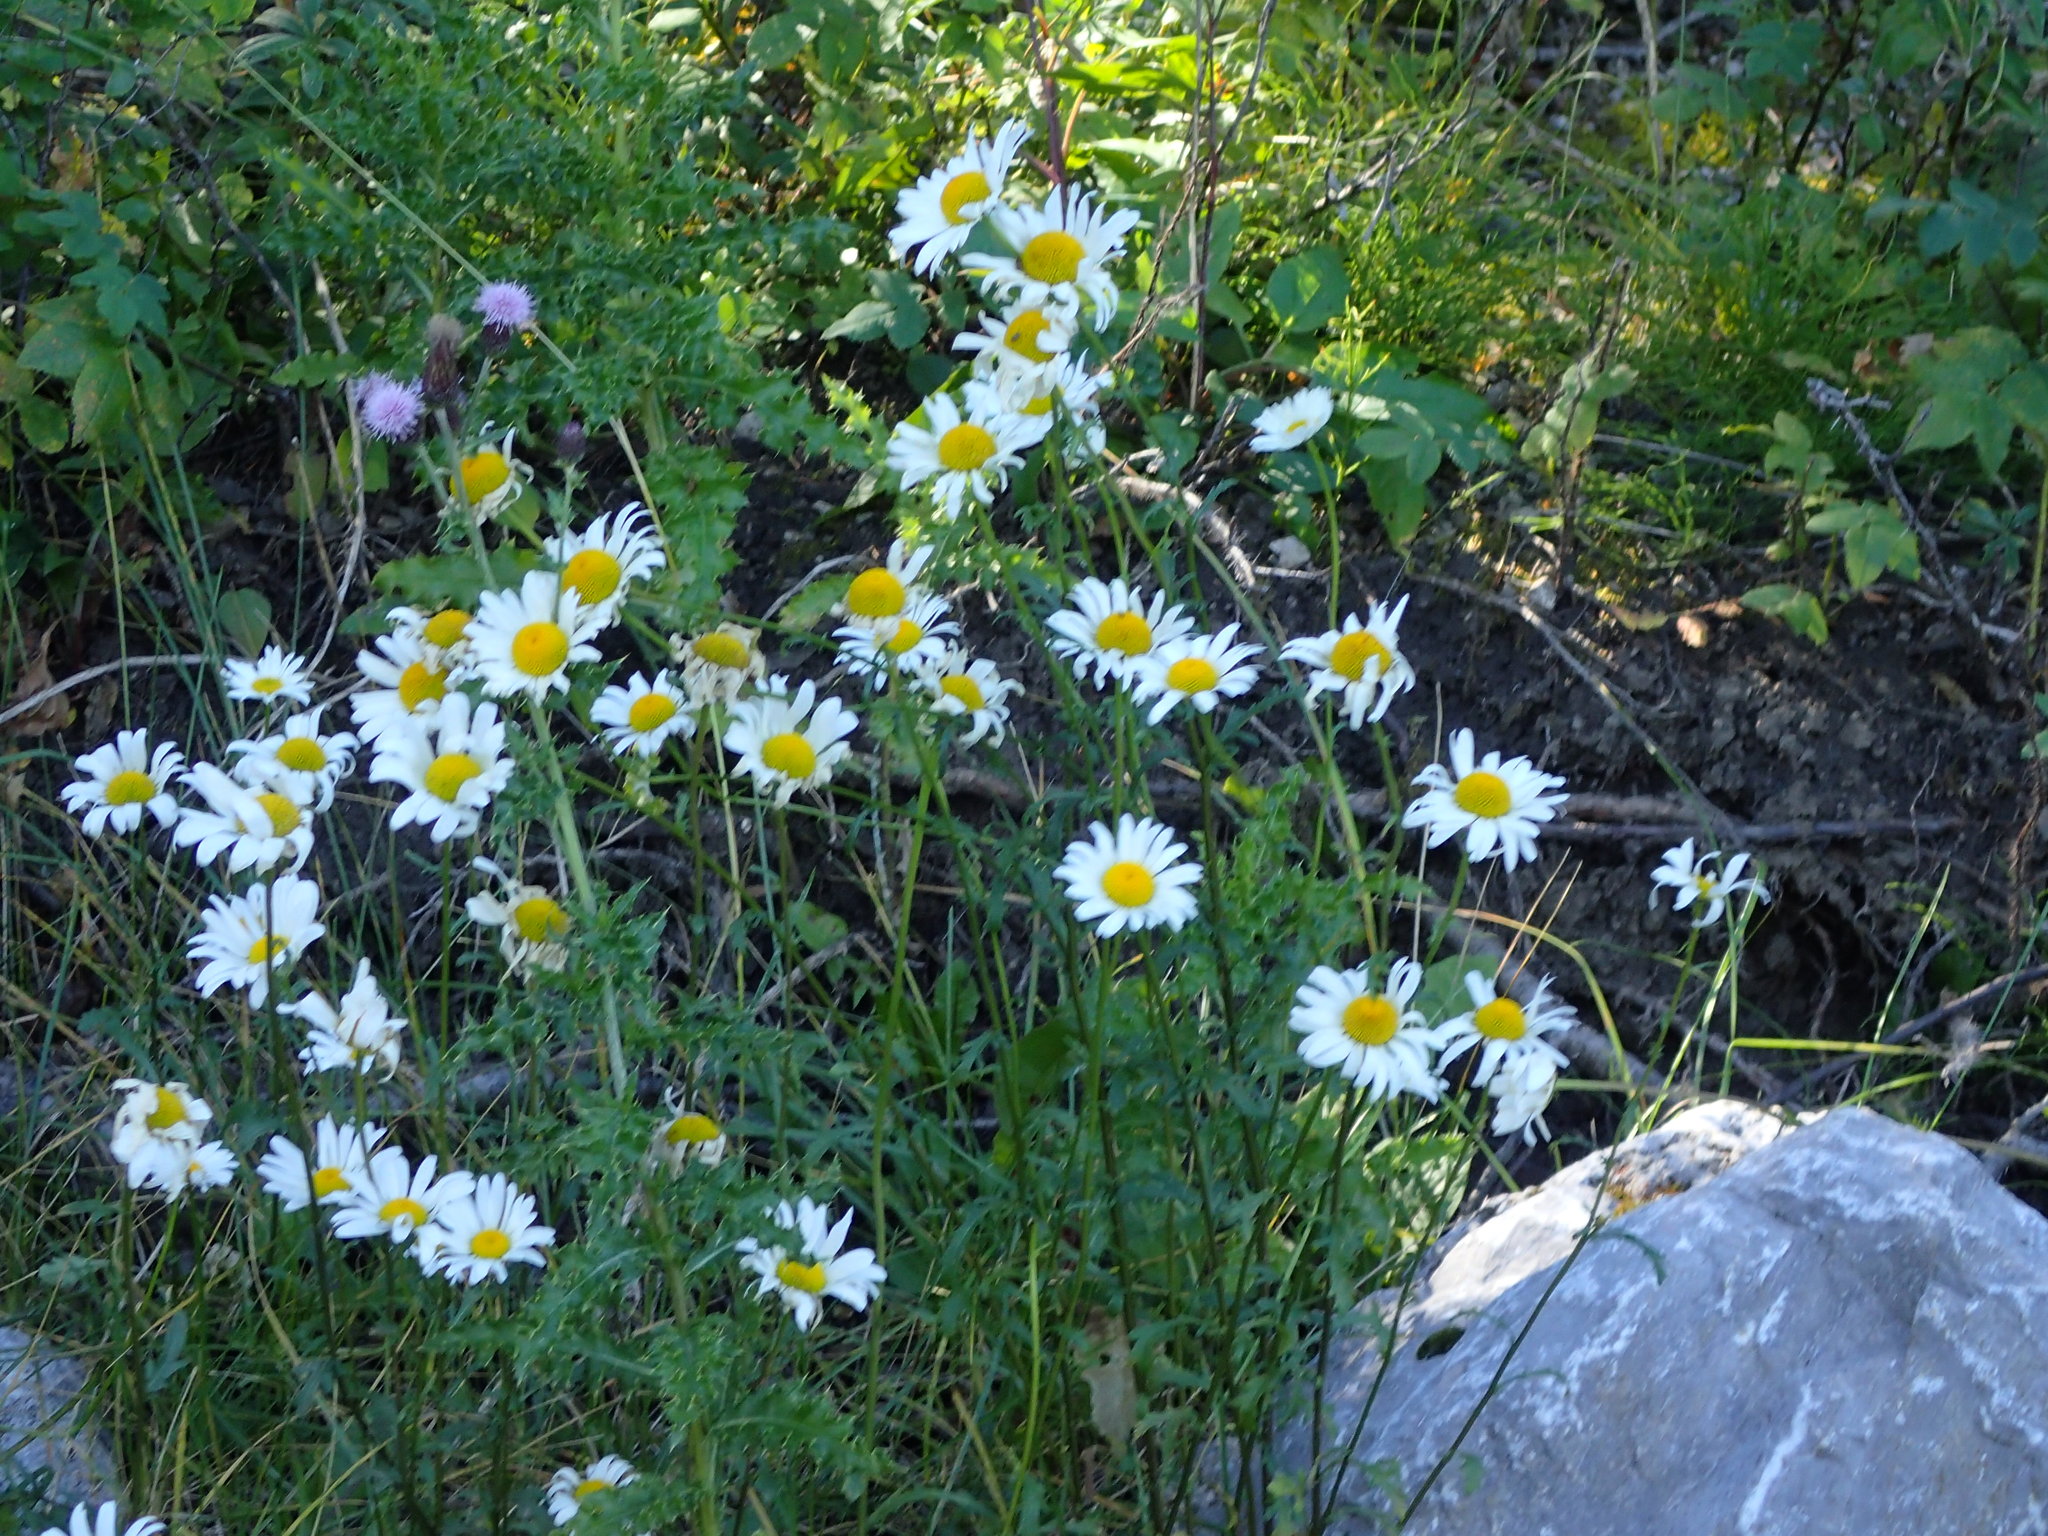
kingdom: Plantae
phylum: Tracheophyta
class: Magnoliopsida
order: Asterales
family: Asteraceae
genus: Leucanthemum
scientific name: Leucanthemum vulgare
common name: Oxeye daisy
